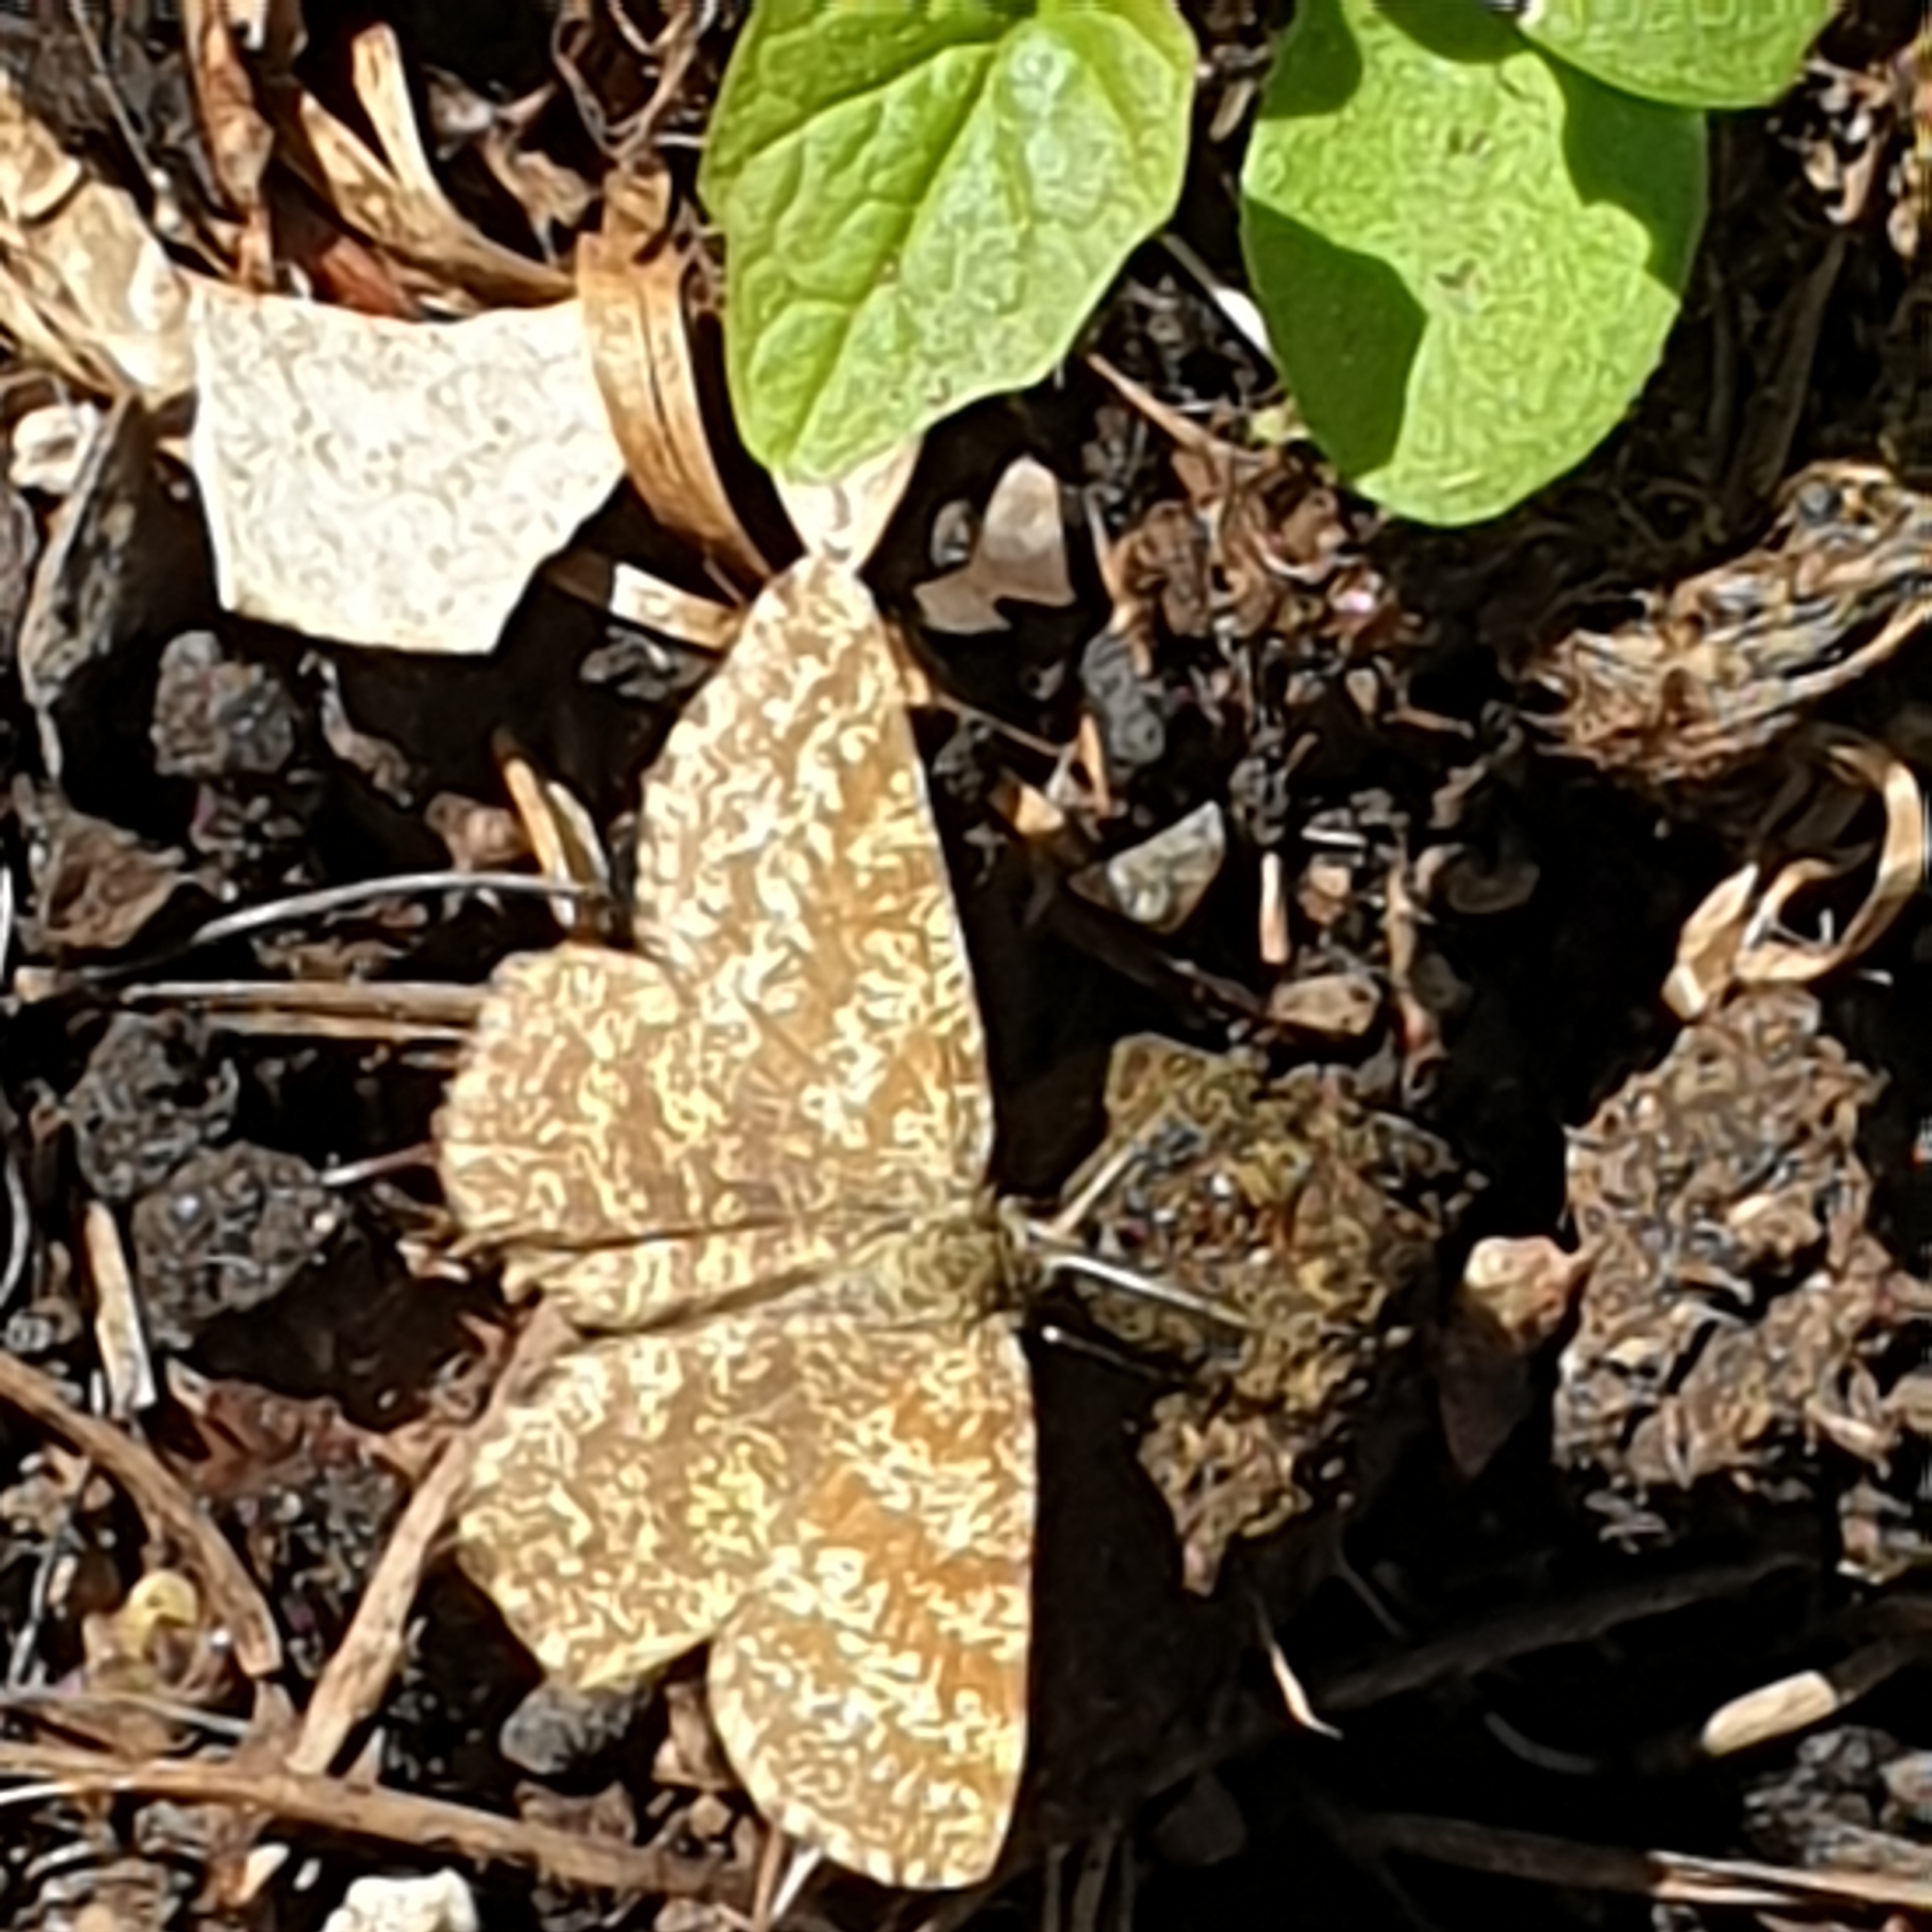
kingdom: Animalia
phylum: Arthropoda
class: Insecta
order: Lepidoptera
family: Geometridae
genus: Ematurga
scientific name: Ematurga atomaria
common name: Common heath
